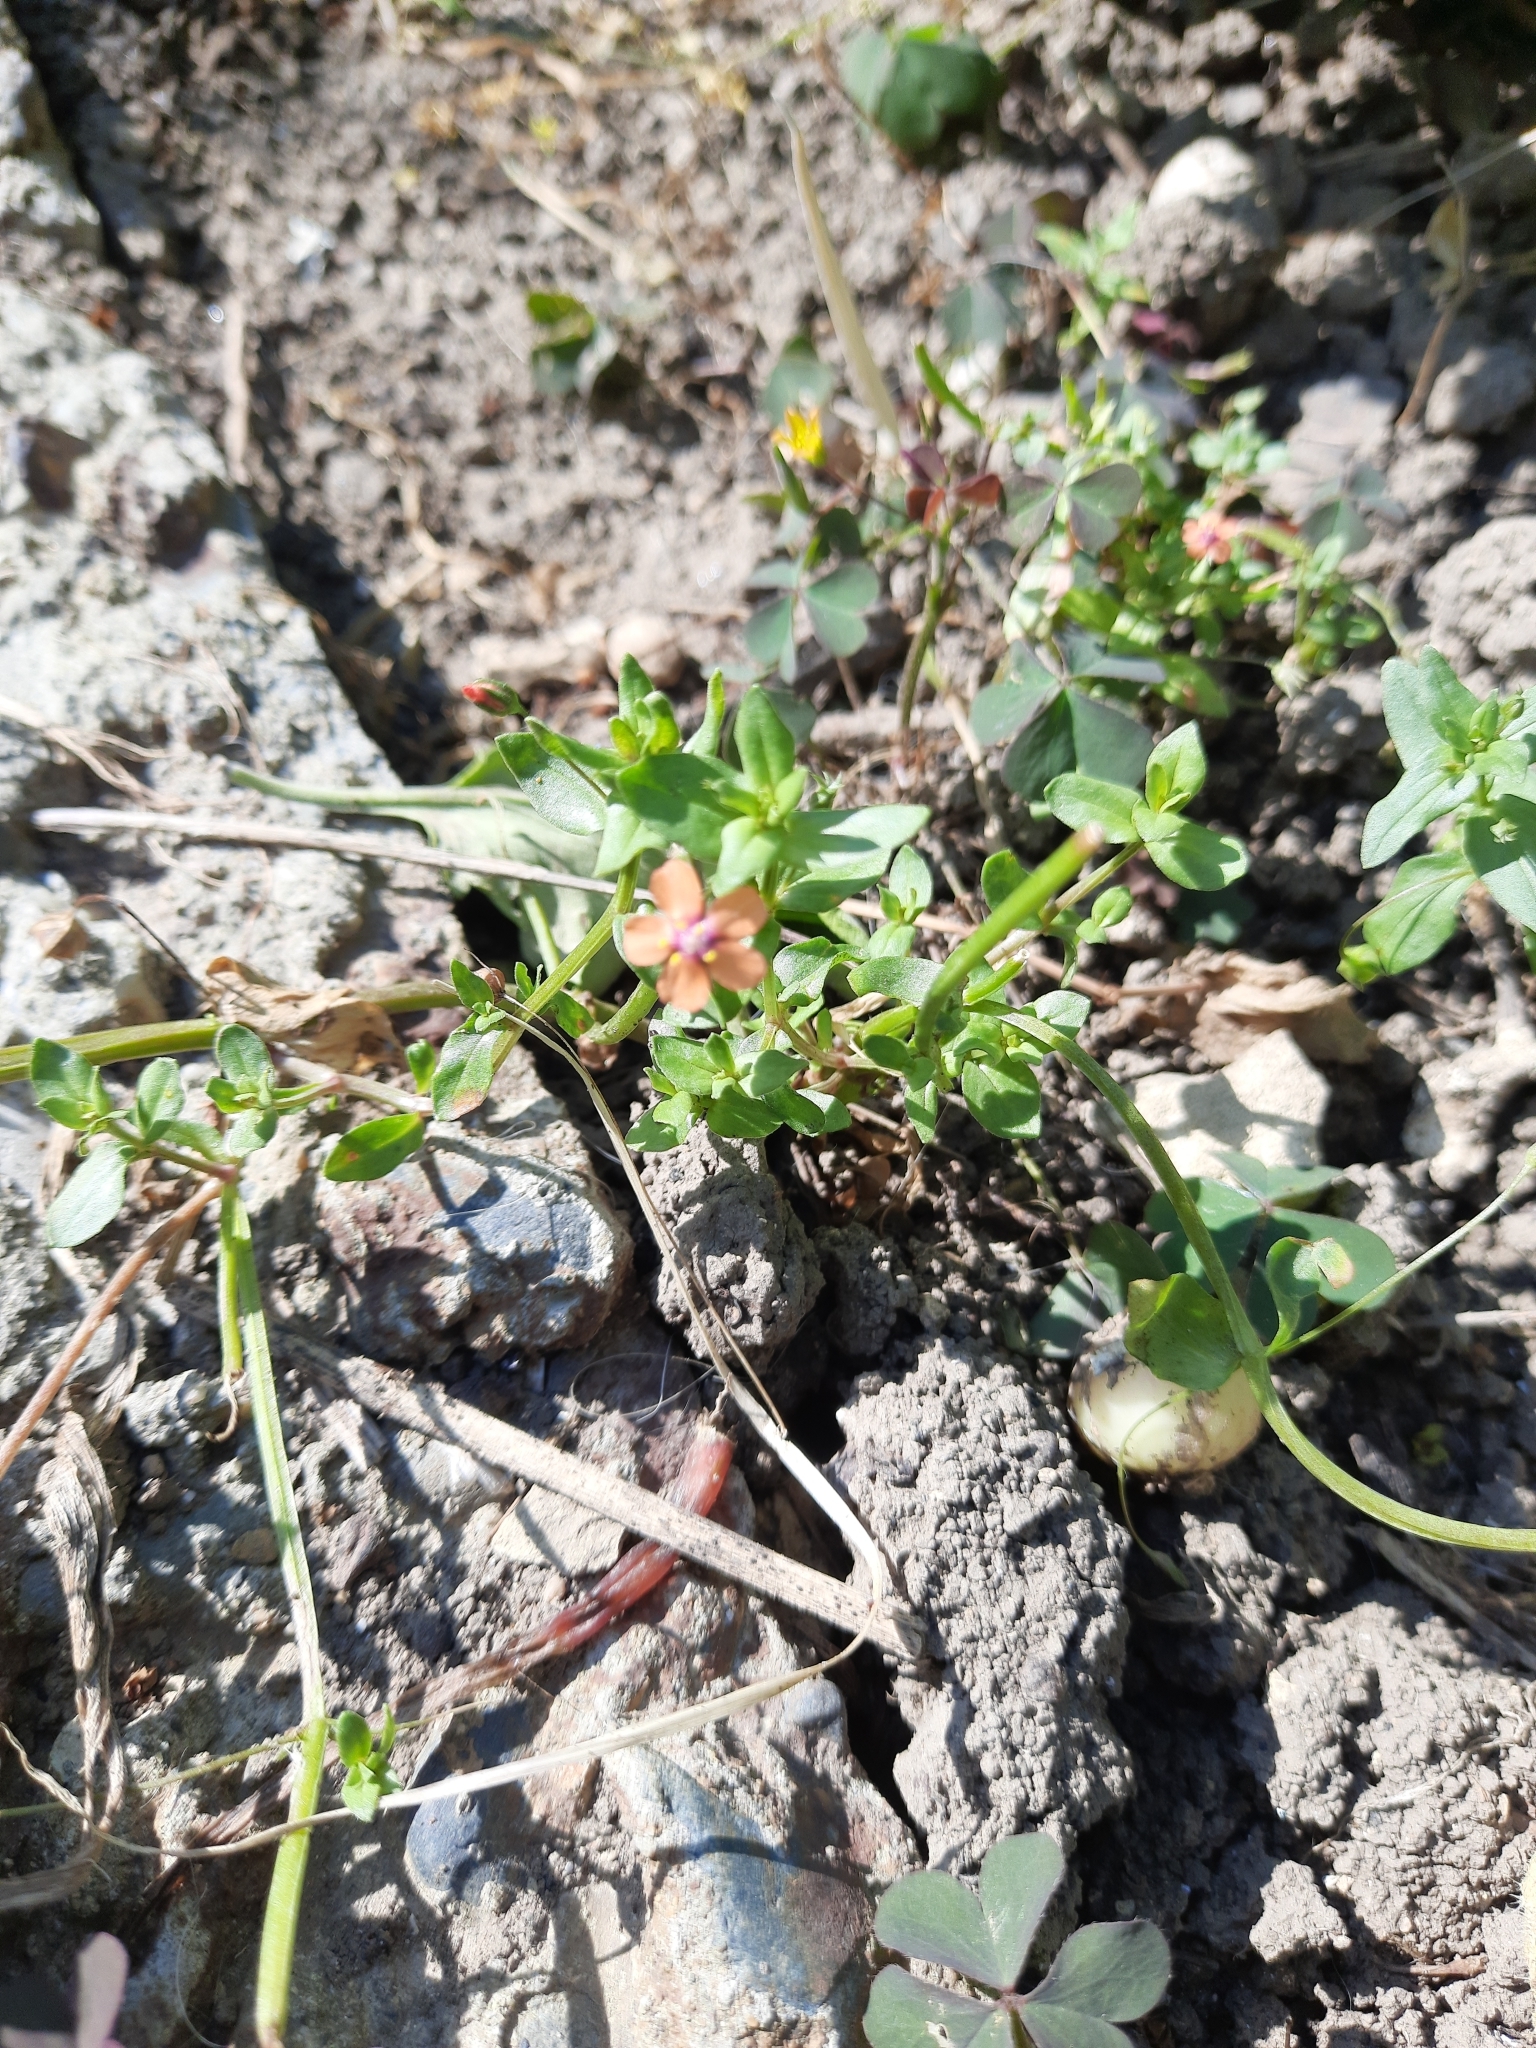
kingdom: Plantae
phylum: Tracheophyta
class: Magnoliopsida
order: Ericales
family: Primulaceae
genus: Lysimachia
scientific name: Lysimachia arvensis
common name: Scarlet pimpernel
